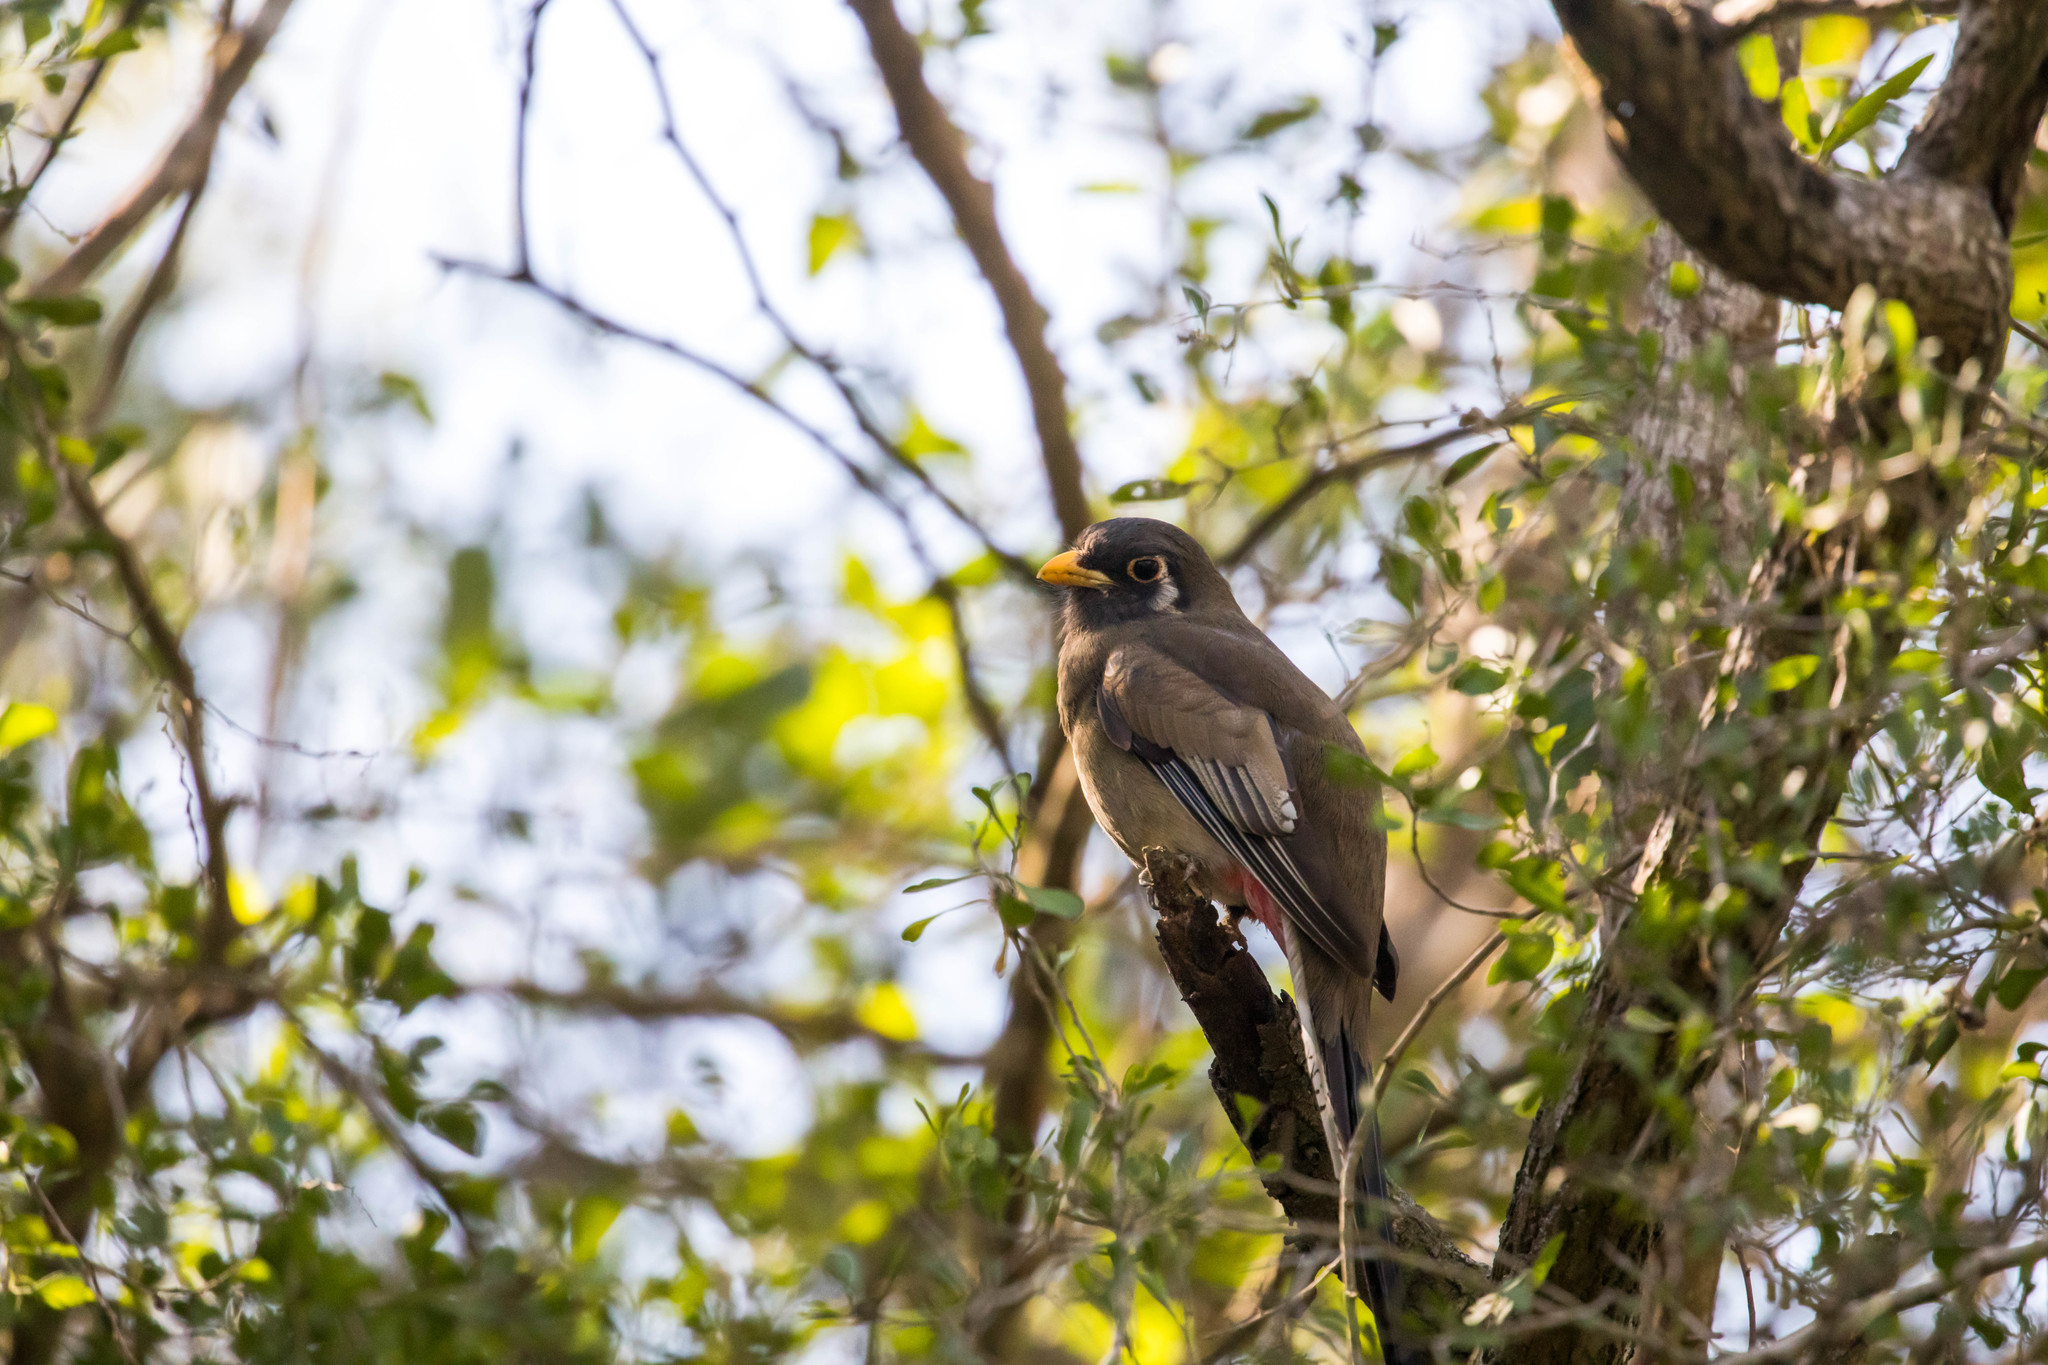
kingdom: Animalia
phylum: Chordata
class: Aves
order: Trogoniformes
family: Trogonidae
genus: Trogon
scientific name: Trogon elegans
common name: Elegant trogon
